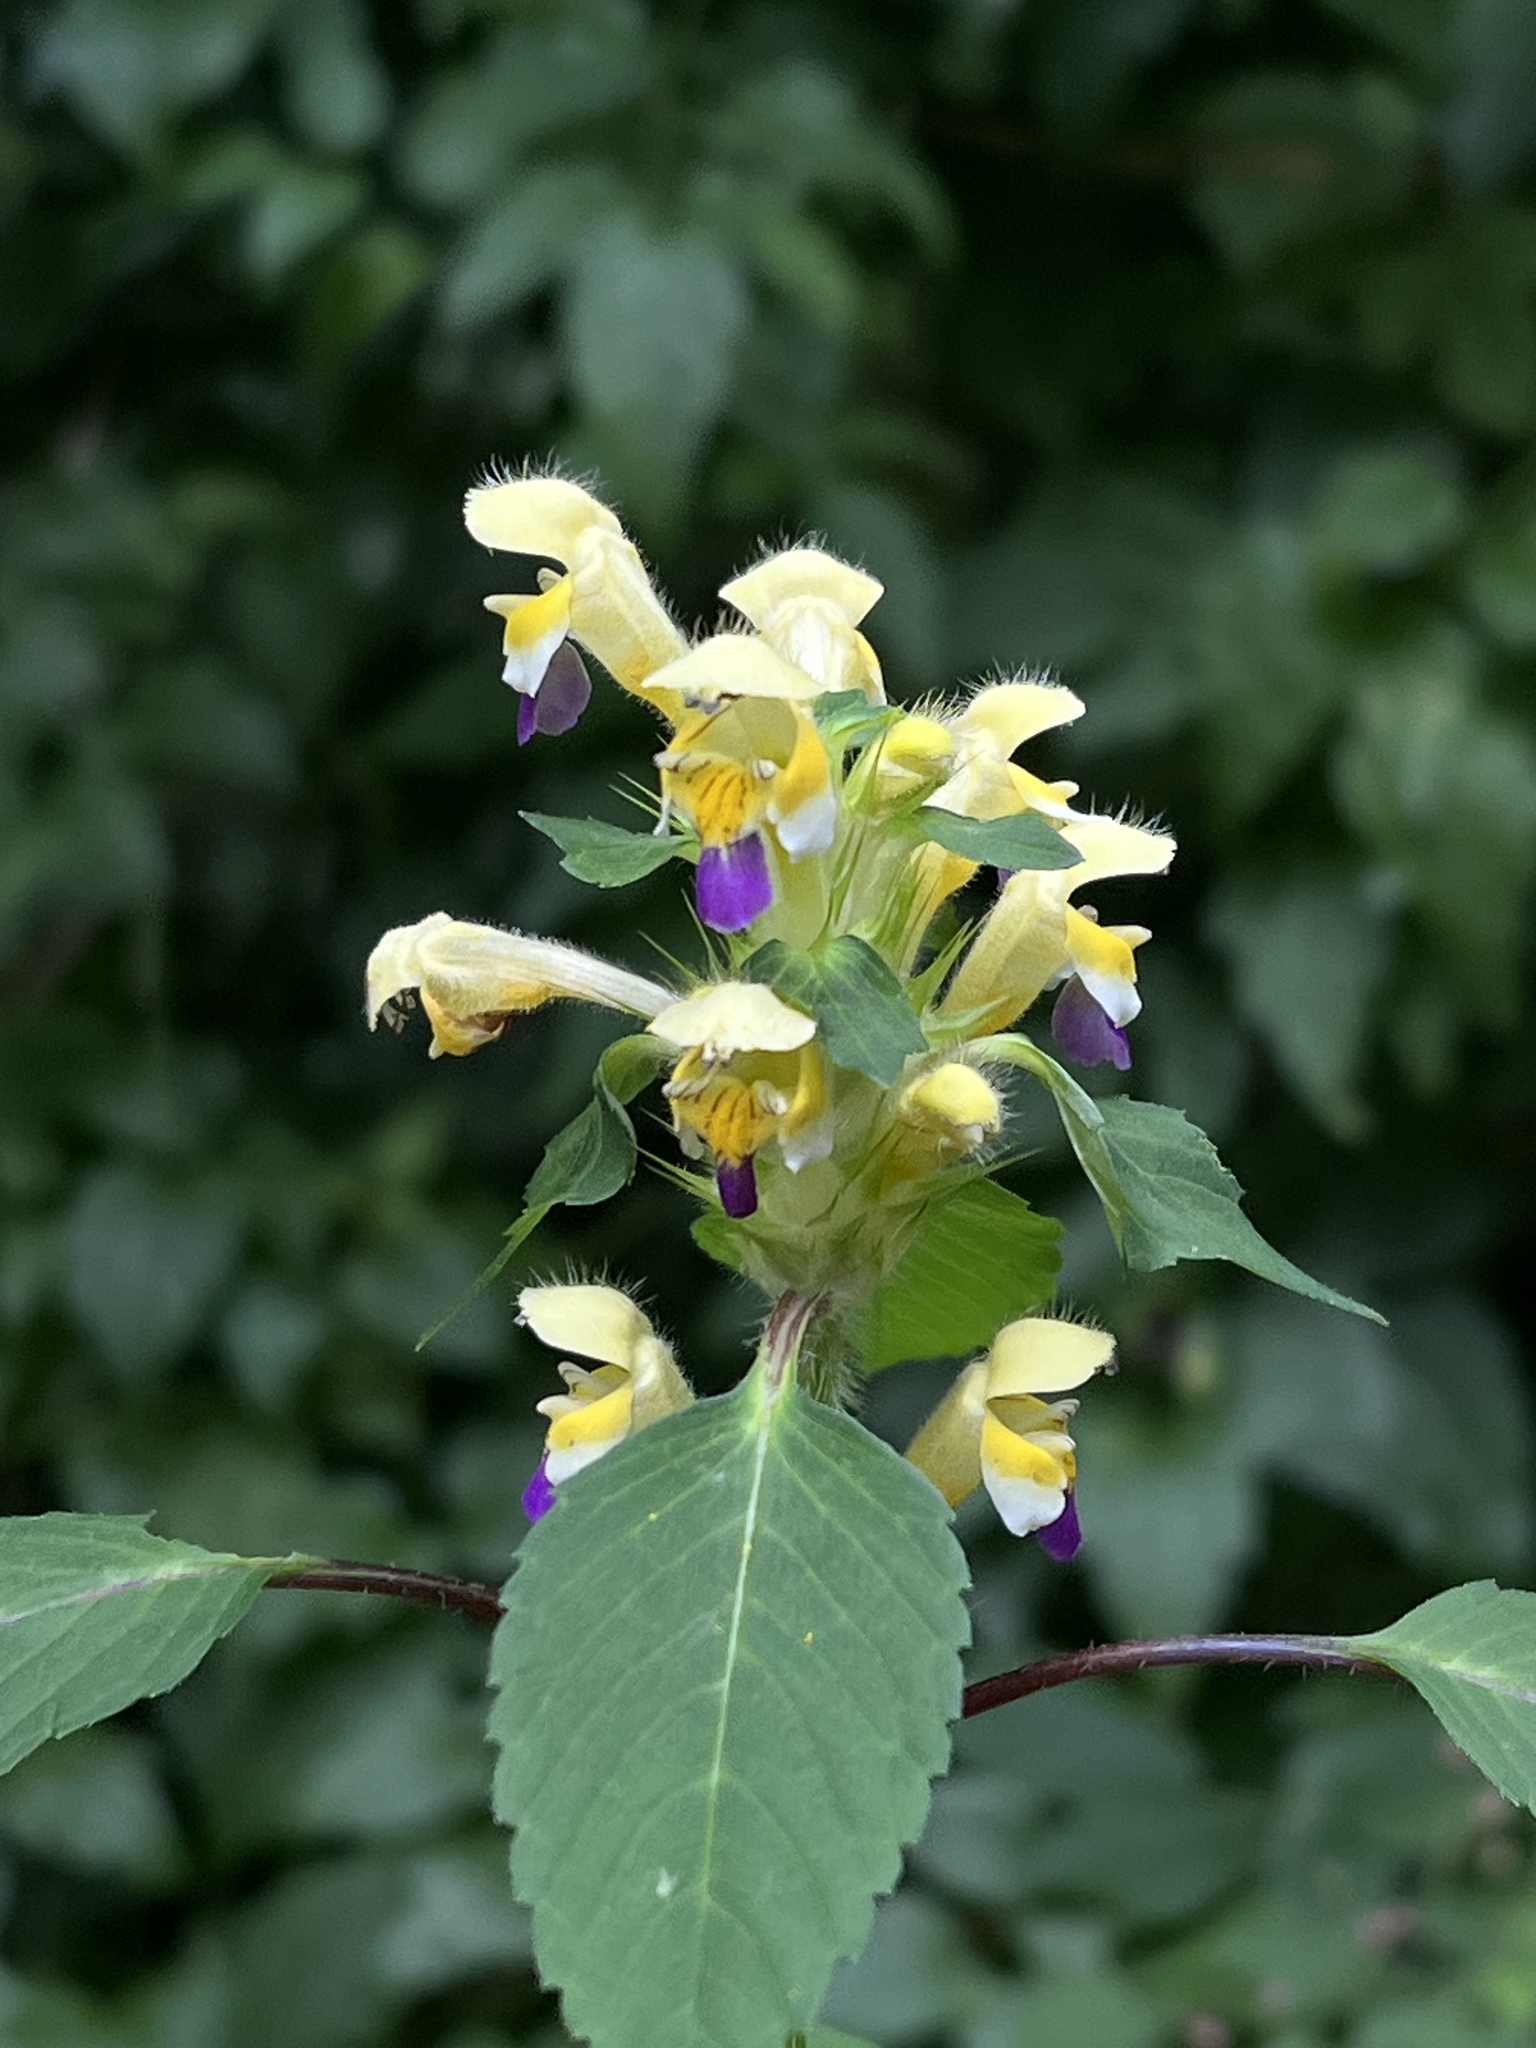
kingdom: Plantae
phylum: Tracheophyta
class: Magnoliopsida
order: Lamiales
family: Lamiaceae
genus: Galeopsis
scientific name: Galeopsis speciosa
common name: Large-flowered hemp-nettle
